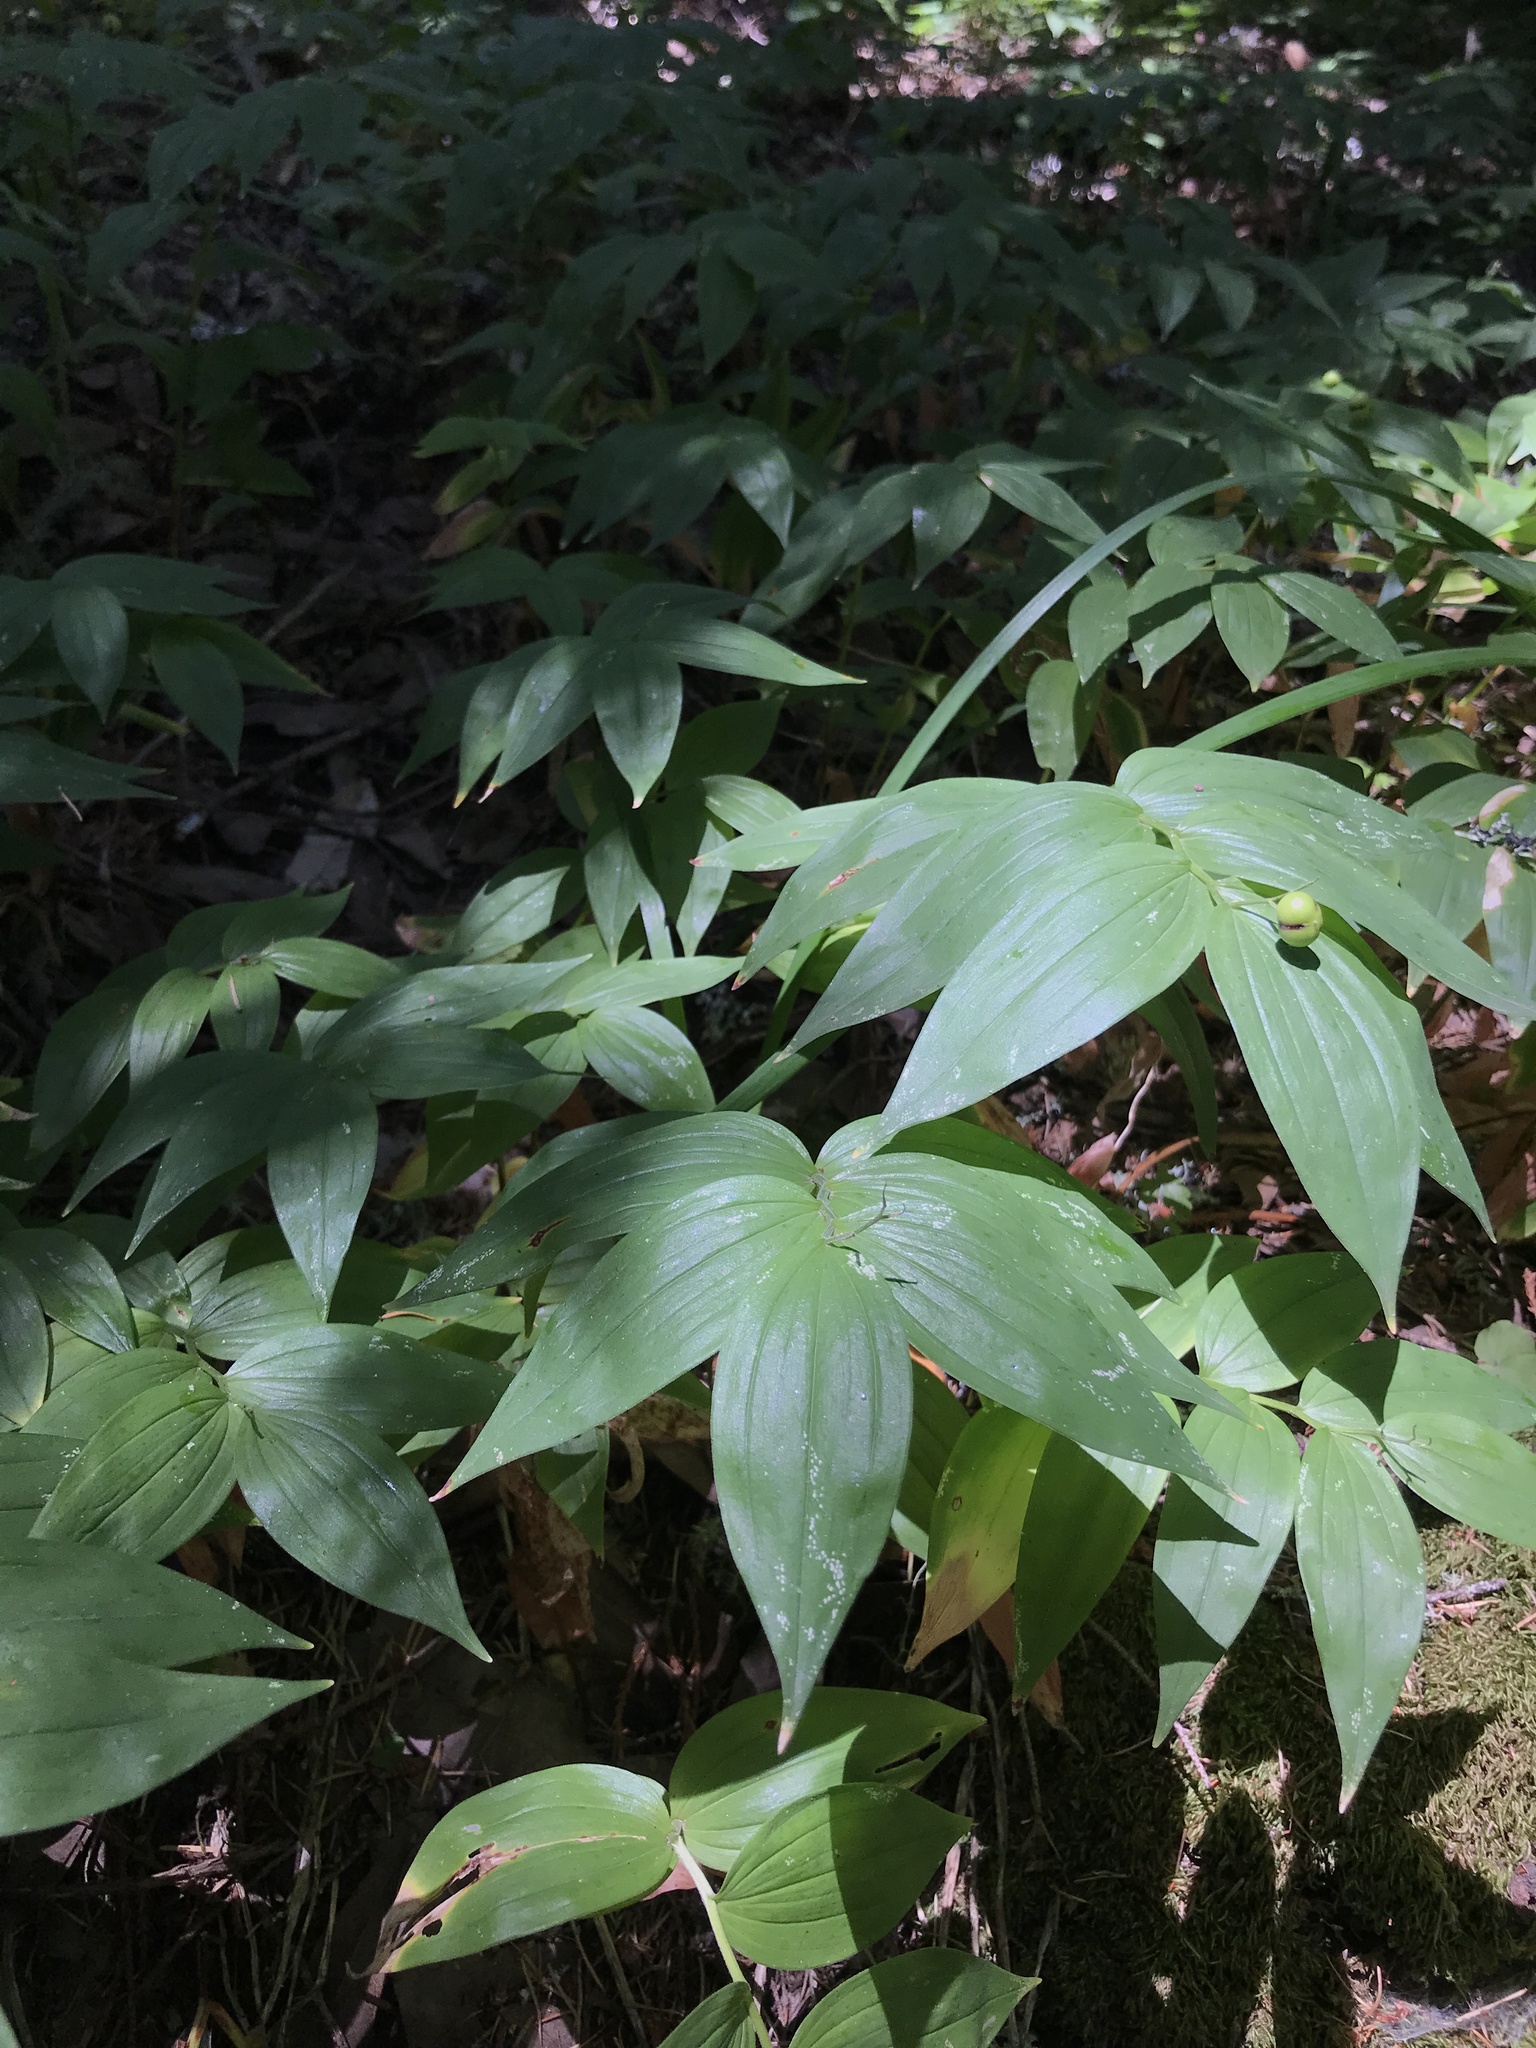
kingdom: Plantae
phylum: Tracheophyta
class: Liliopsida
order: Asparagales
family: Asparagaceae
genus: Maianthemum
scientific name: Maianthemum stellatum
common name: Little false solomon's seal
